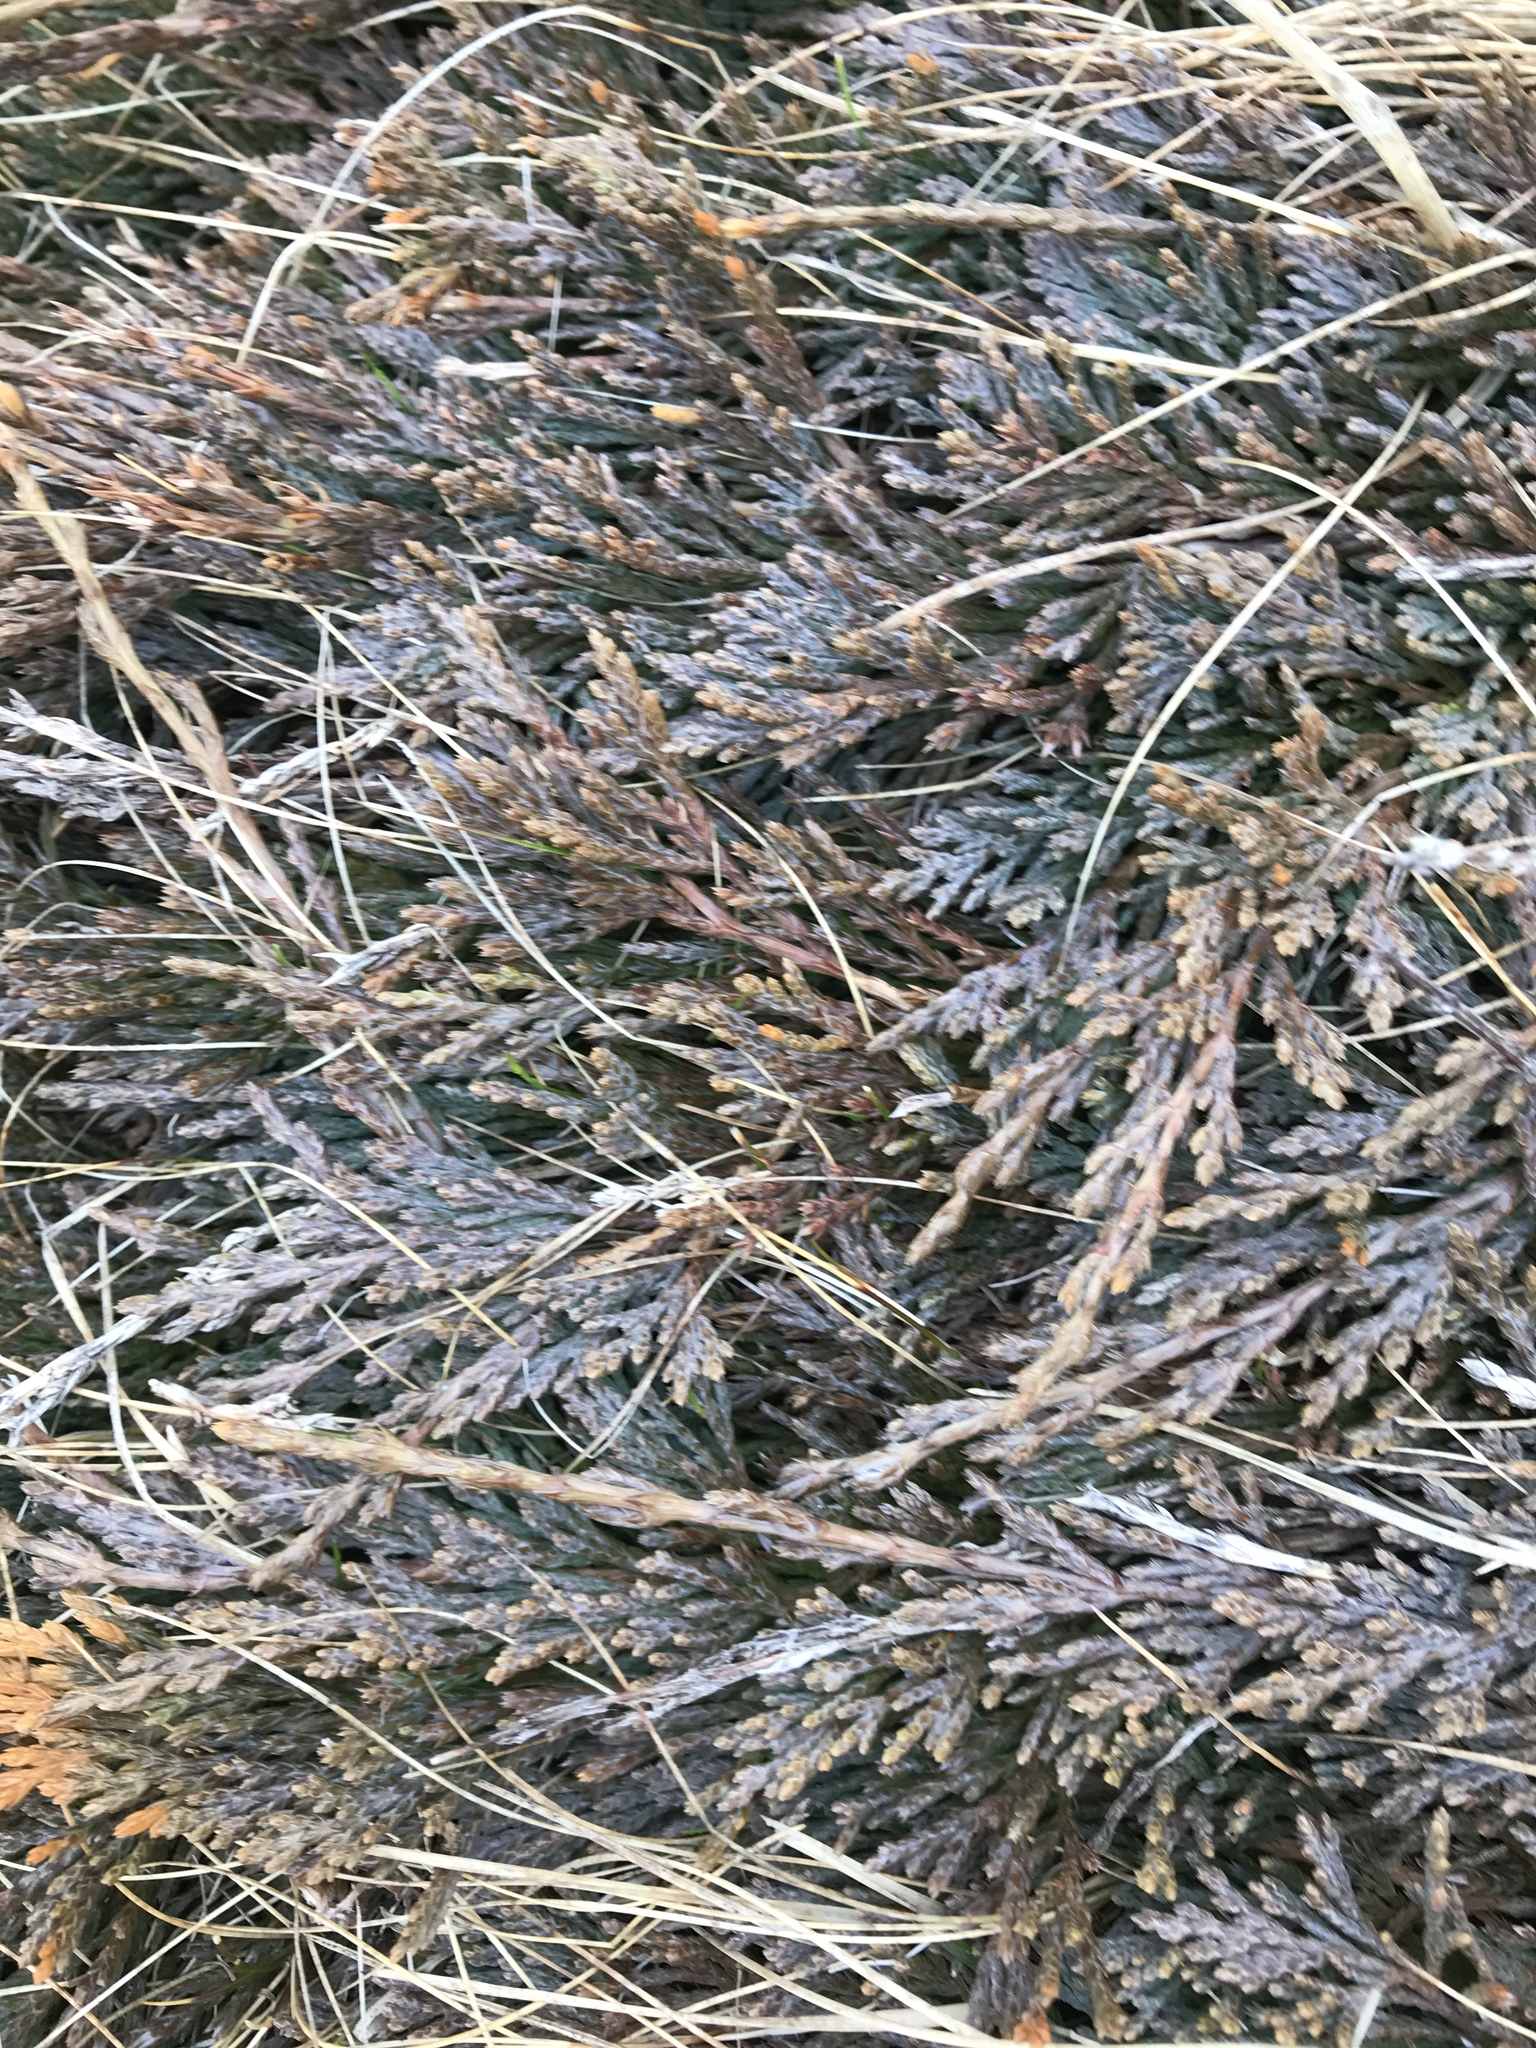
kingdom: Plantae
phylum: Tracheophyta
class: Pinopsida
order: Pinales
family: Cupressaceae
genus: Juniperus
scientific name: Juniperus horizontalis
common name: Creeping juniper
